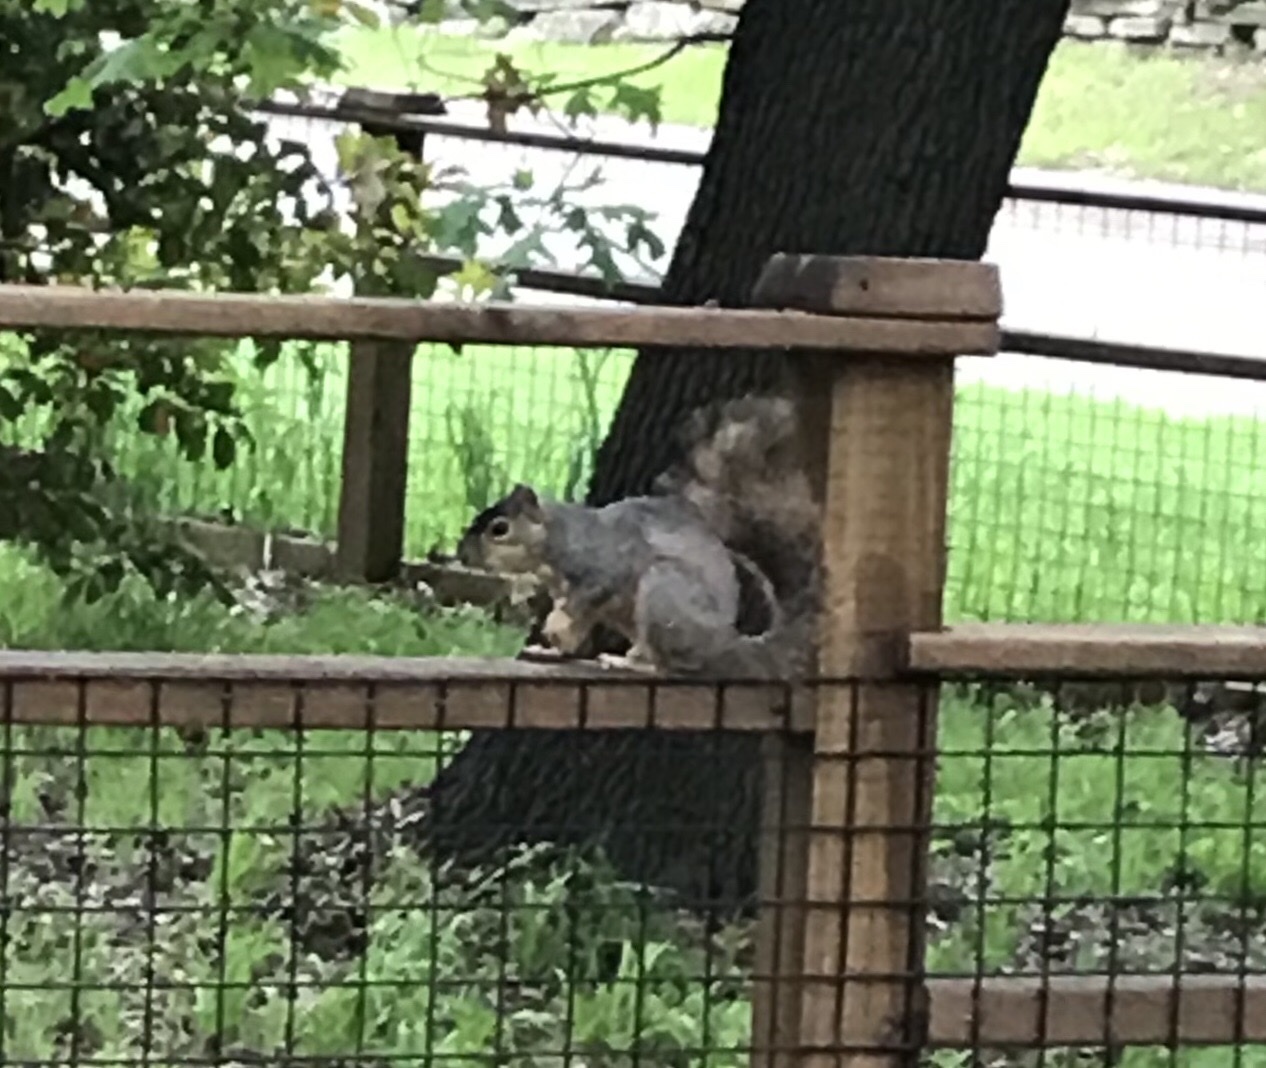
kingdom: Animalia
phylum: Chordata
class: Mammalia
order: Rodentia
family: Sciuridae
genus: Sciurus
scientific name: Sciurus niger
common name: Fox squirrel
